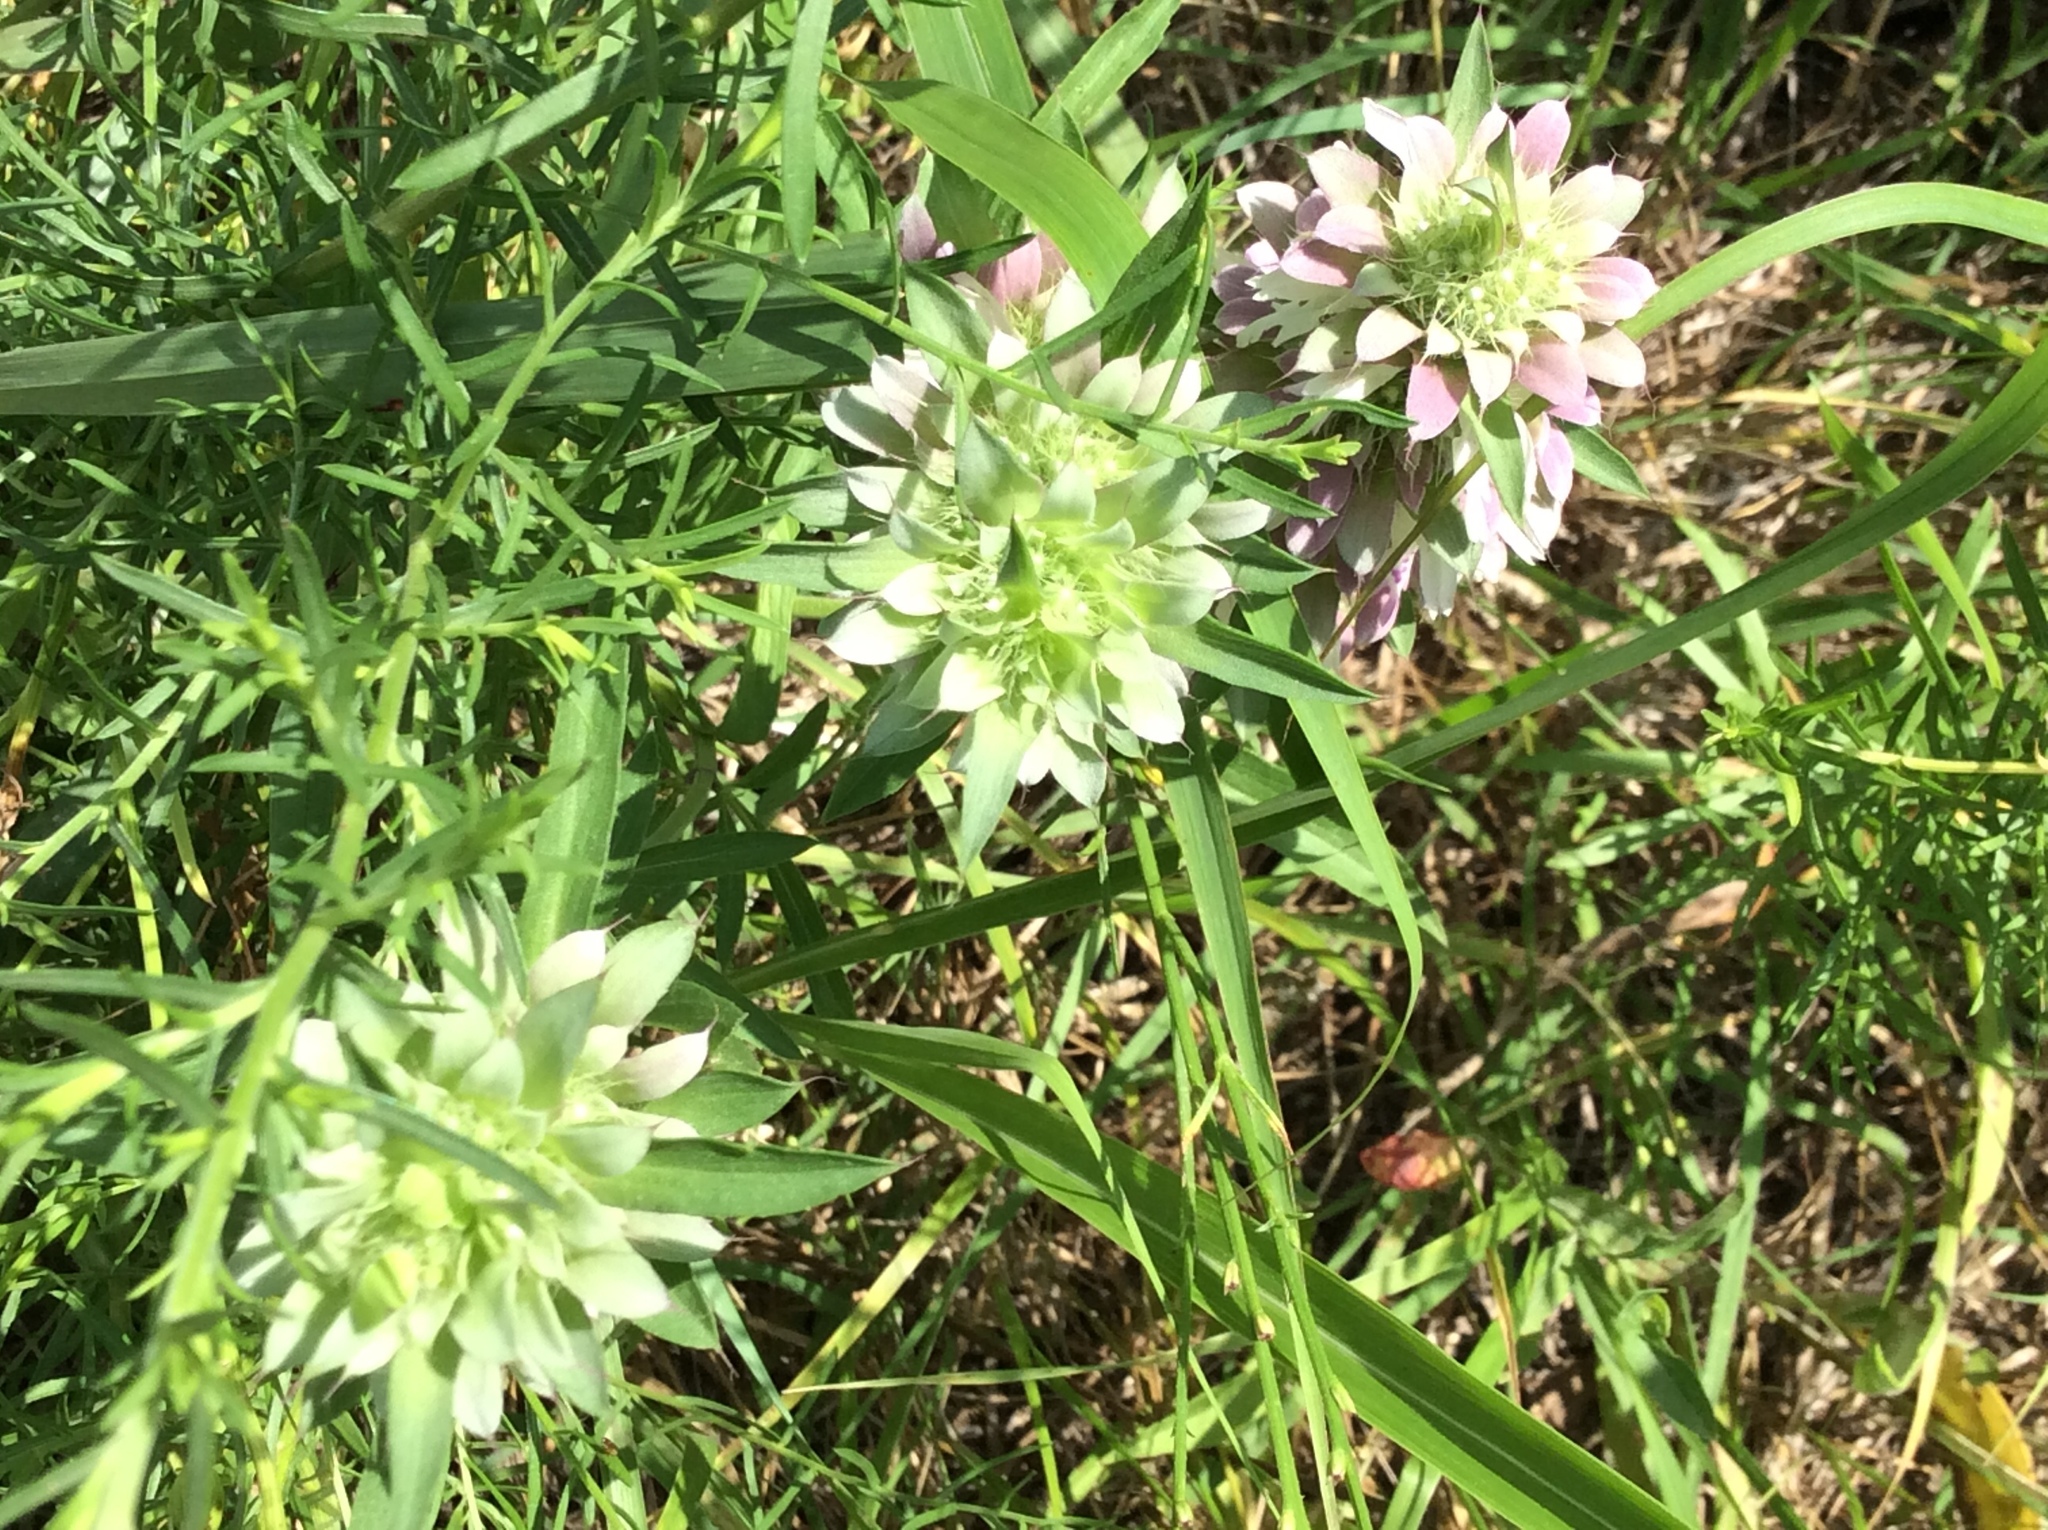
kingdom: Plantae
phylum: Tracheophyta
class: Magnoliopsida
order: Lamiales
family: Lamiaceae
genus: Monarda
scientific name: Monarda citriodora
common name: Lemon beebalm
